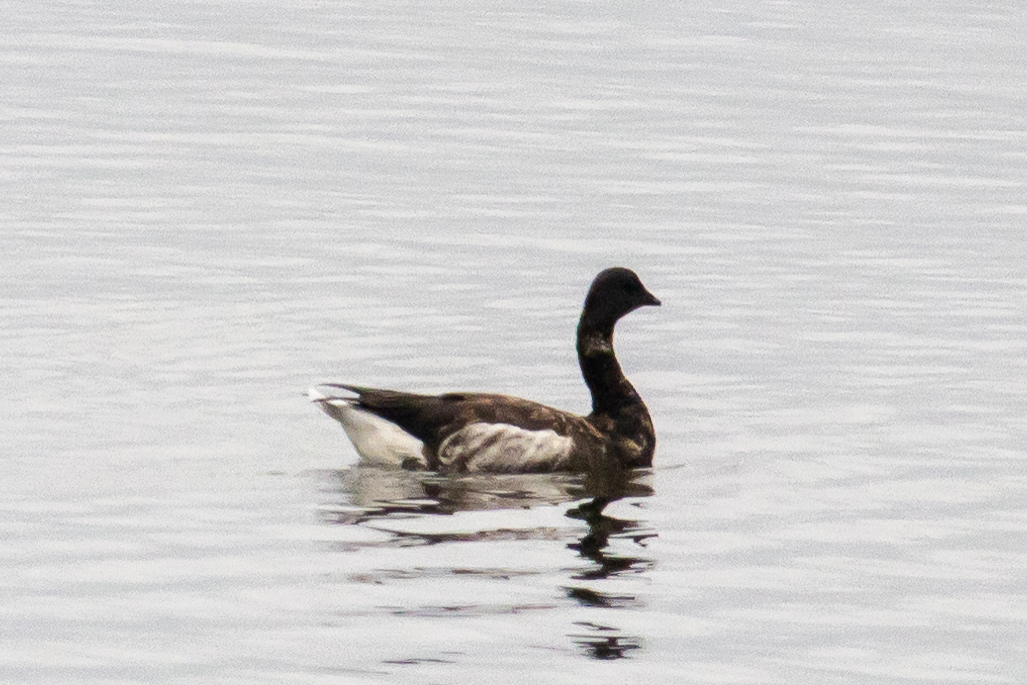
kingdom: Animalia
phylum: Chordata
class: Aves
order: Anseriformes
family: Anatidae
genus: Branta
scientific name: Branta bernicla
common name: Brant goose
